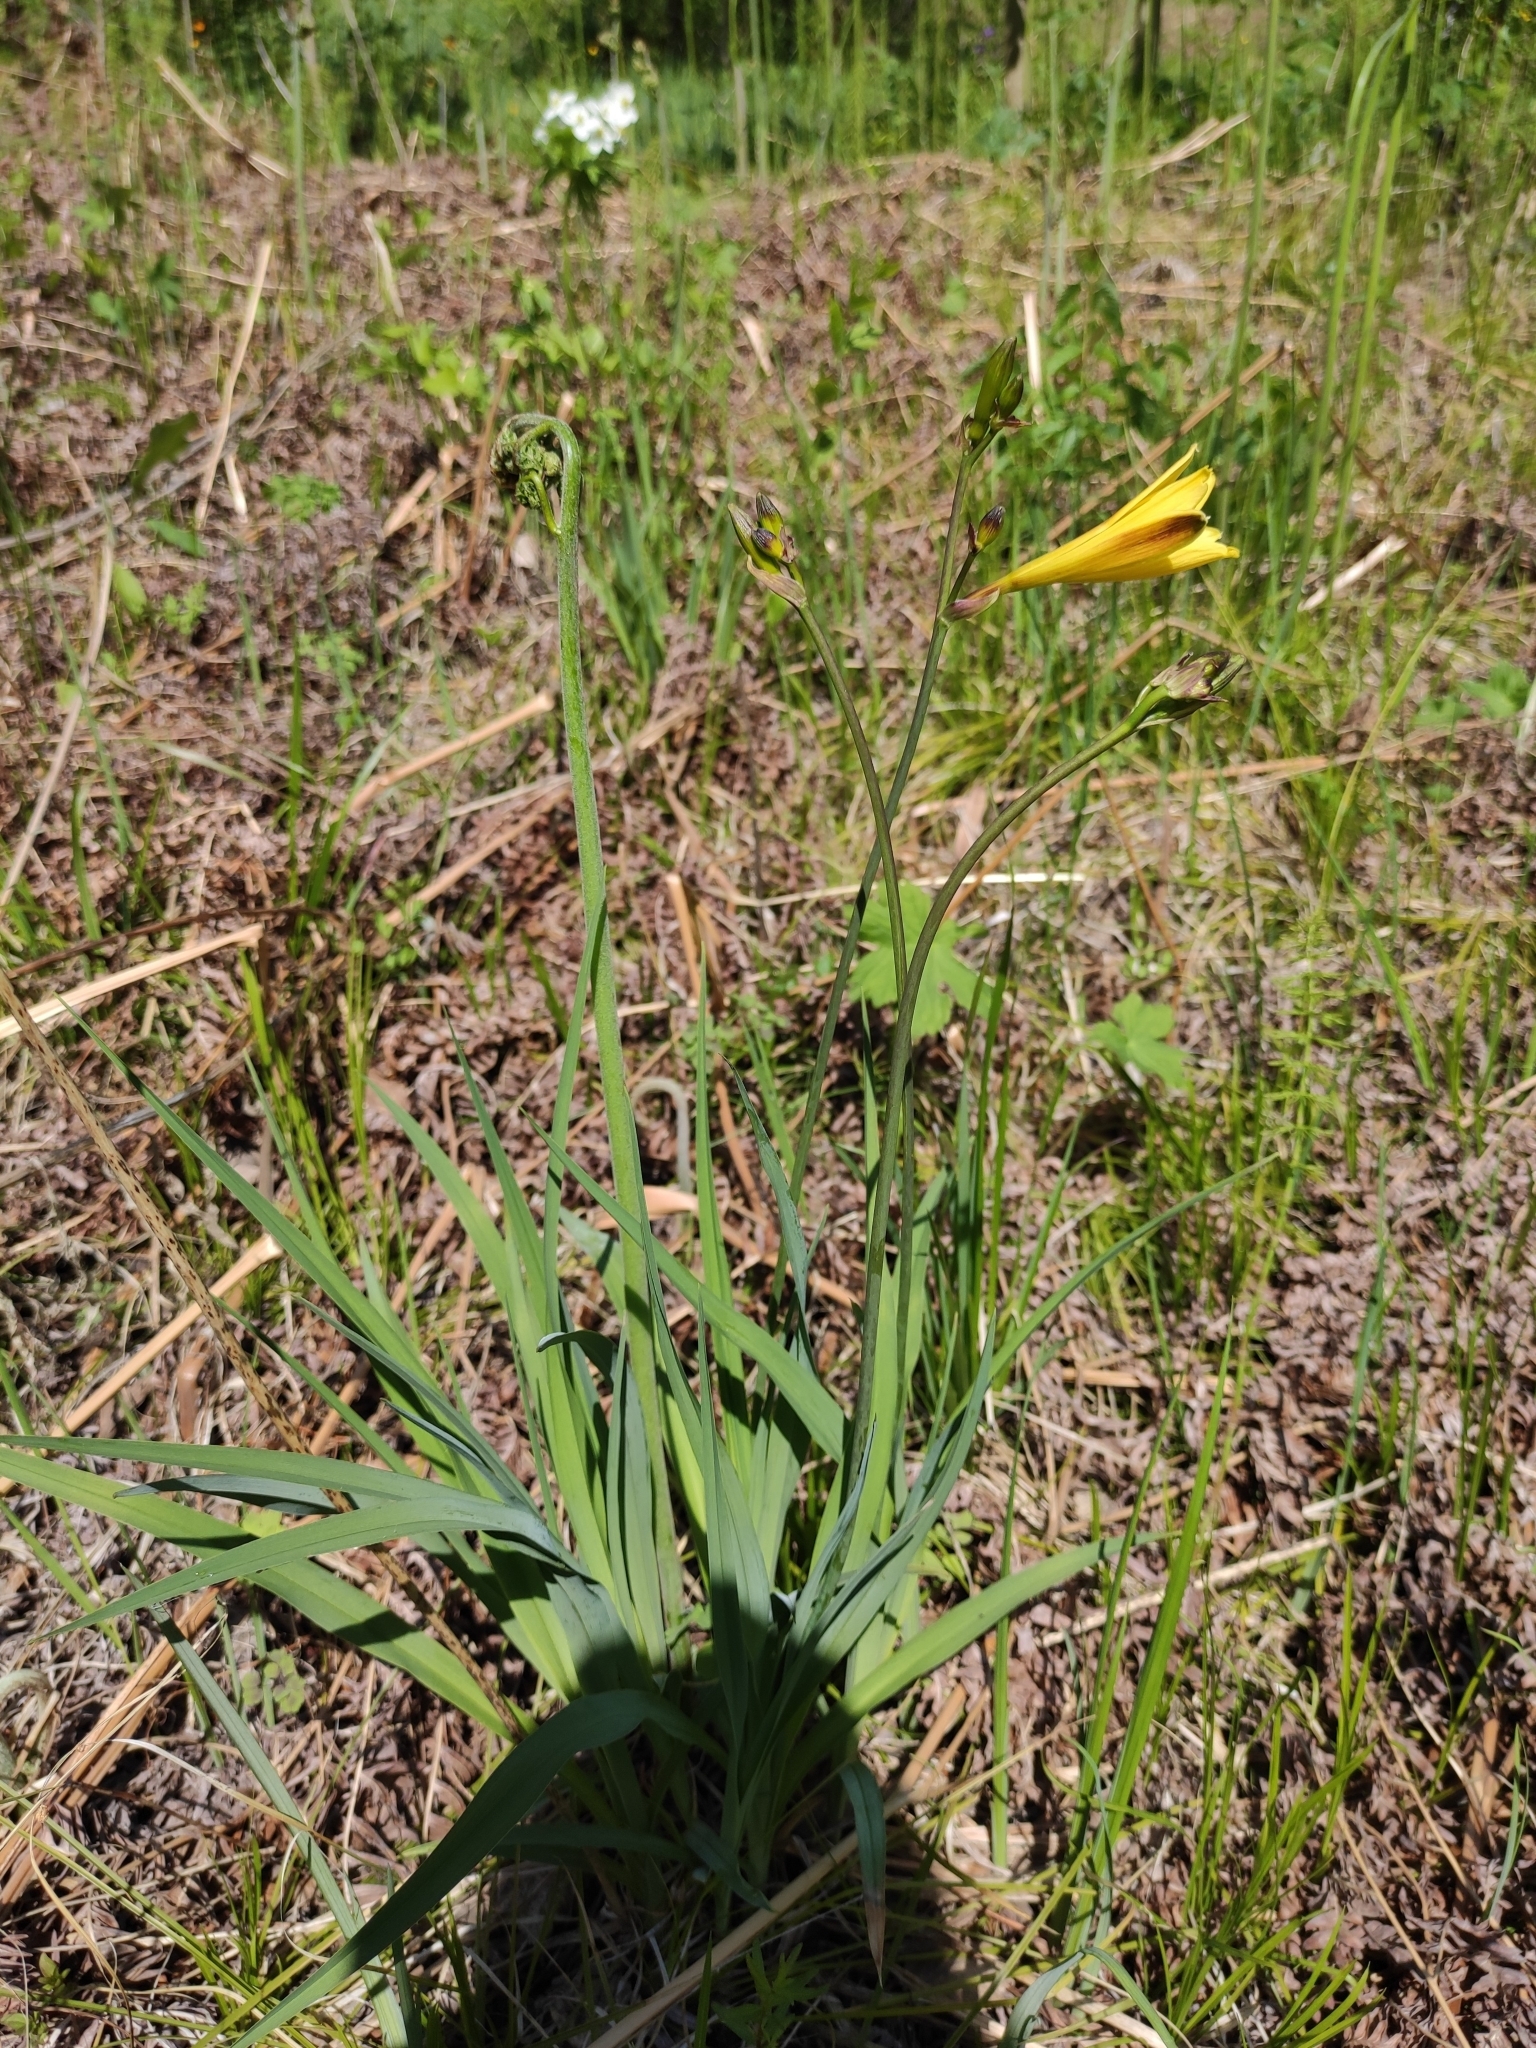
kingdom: Plantae
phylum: Tracheophyta
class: Liliopsida
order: Asparagales
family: Asphodelaceae
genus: Hemerocallis
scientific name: Hemerocallis minor
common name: Small daylily
